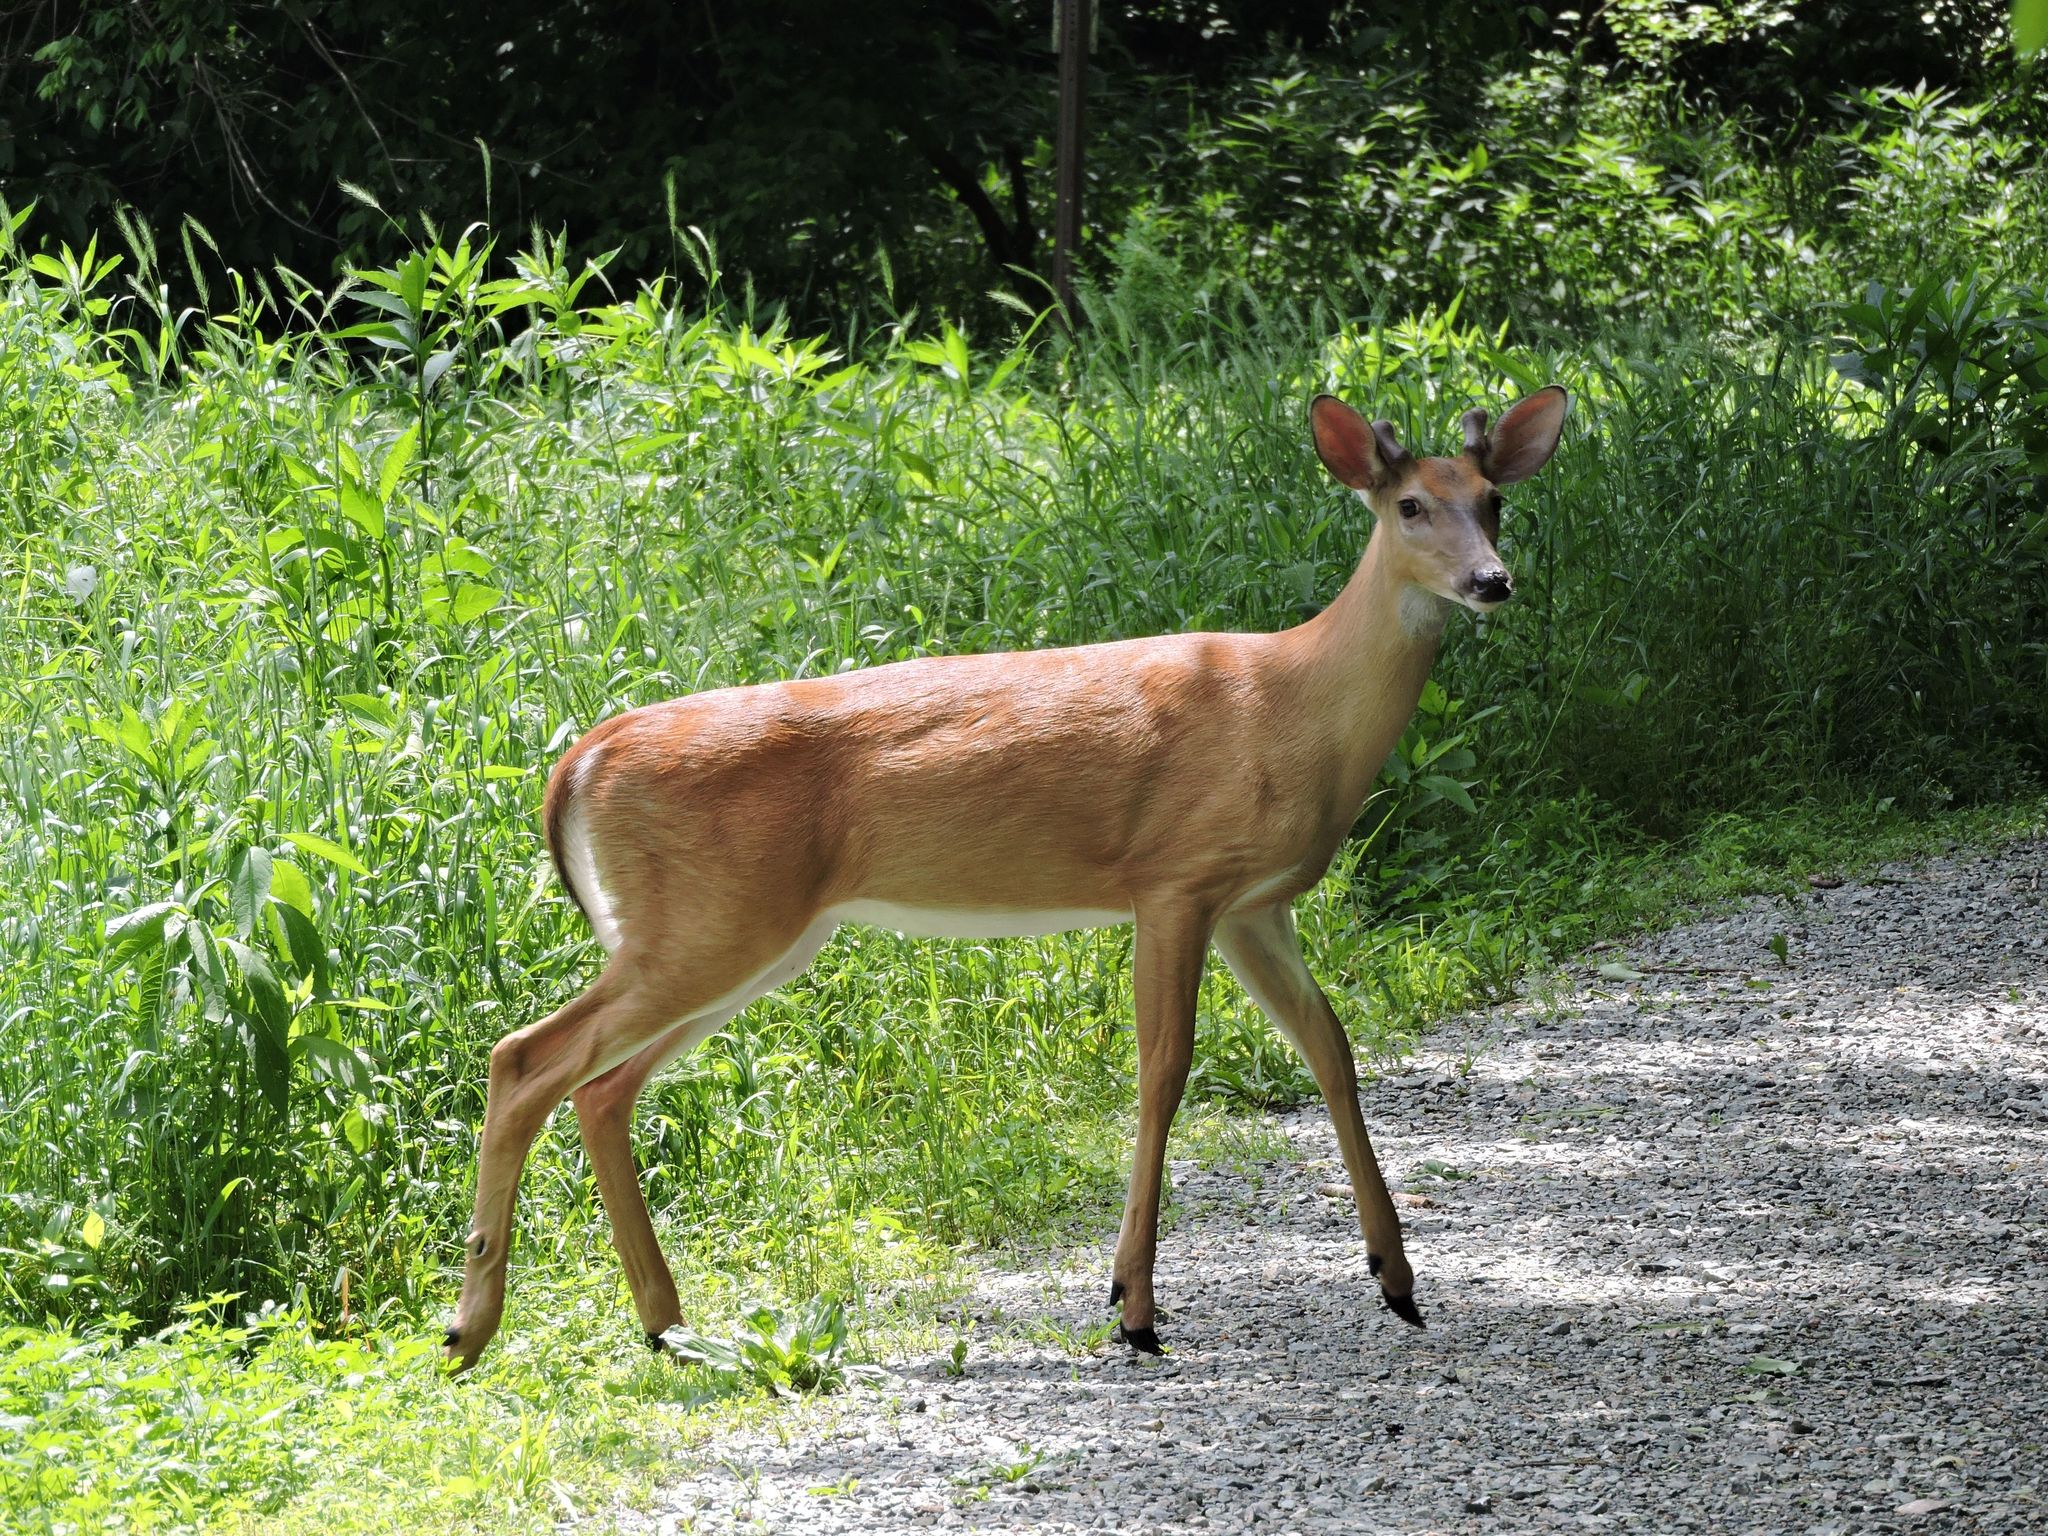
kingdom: Animalia
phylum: Chordata
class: Mammalia
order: Artiodactyla
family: Cervidae
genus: Odocoileus
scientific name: Odocoileus virginianus
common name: White-tailed deer
